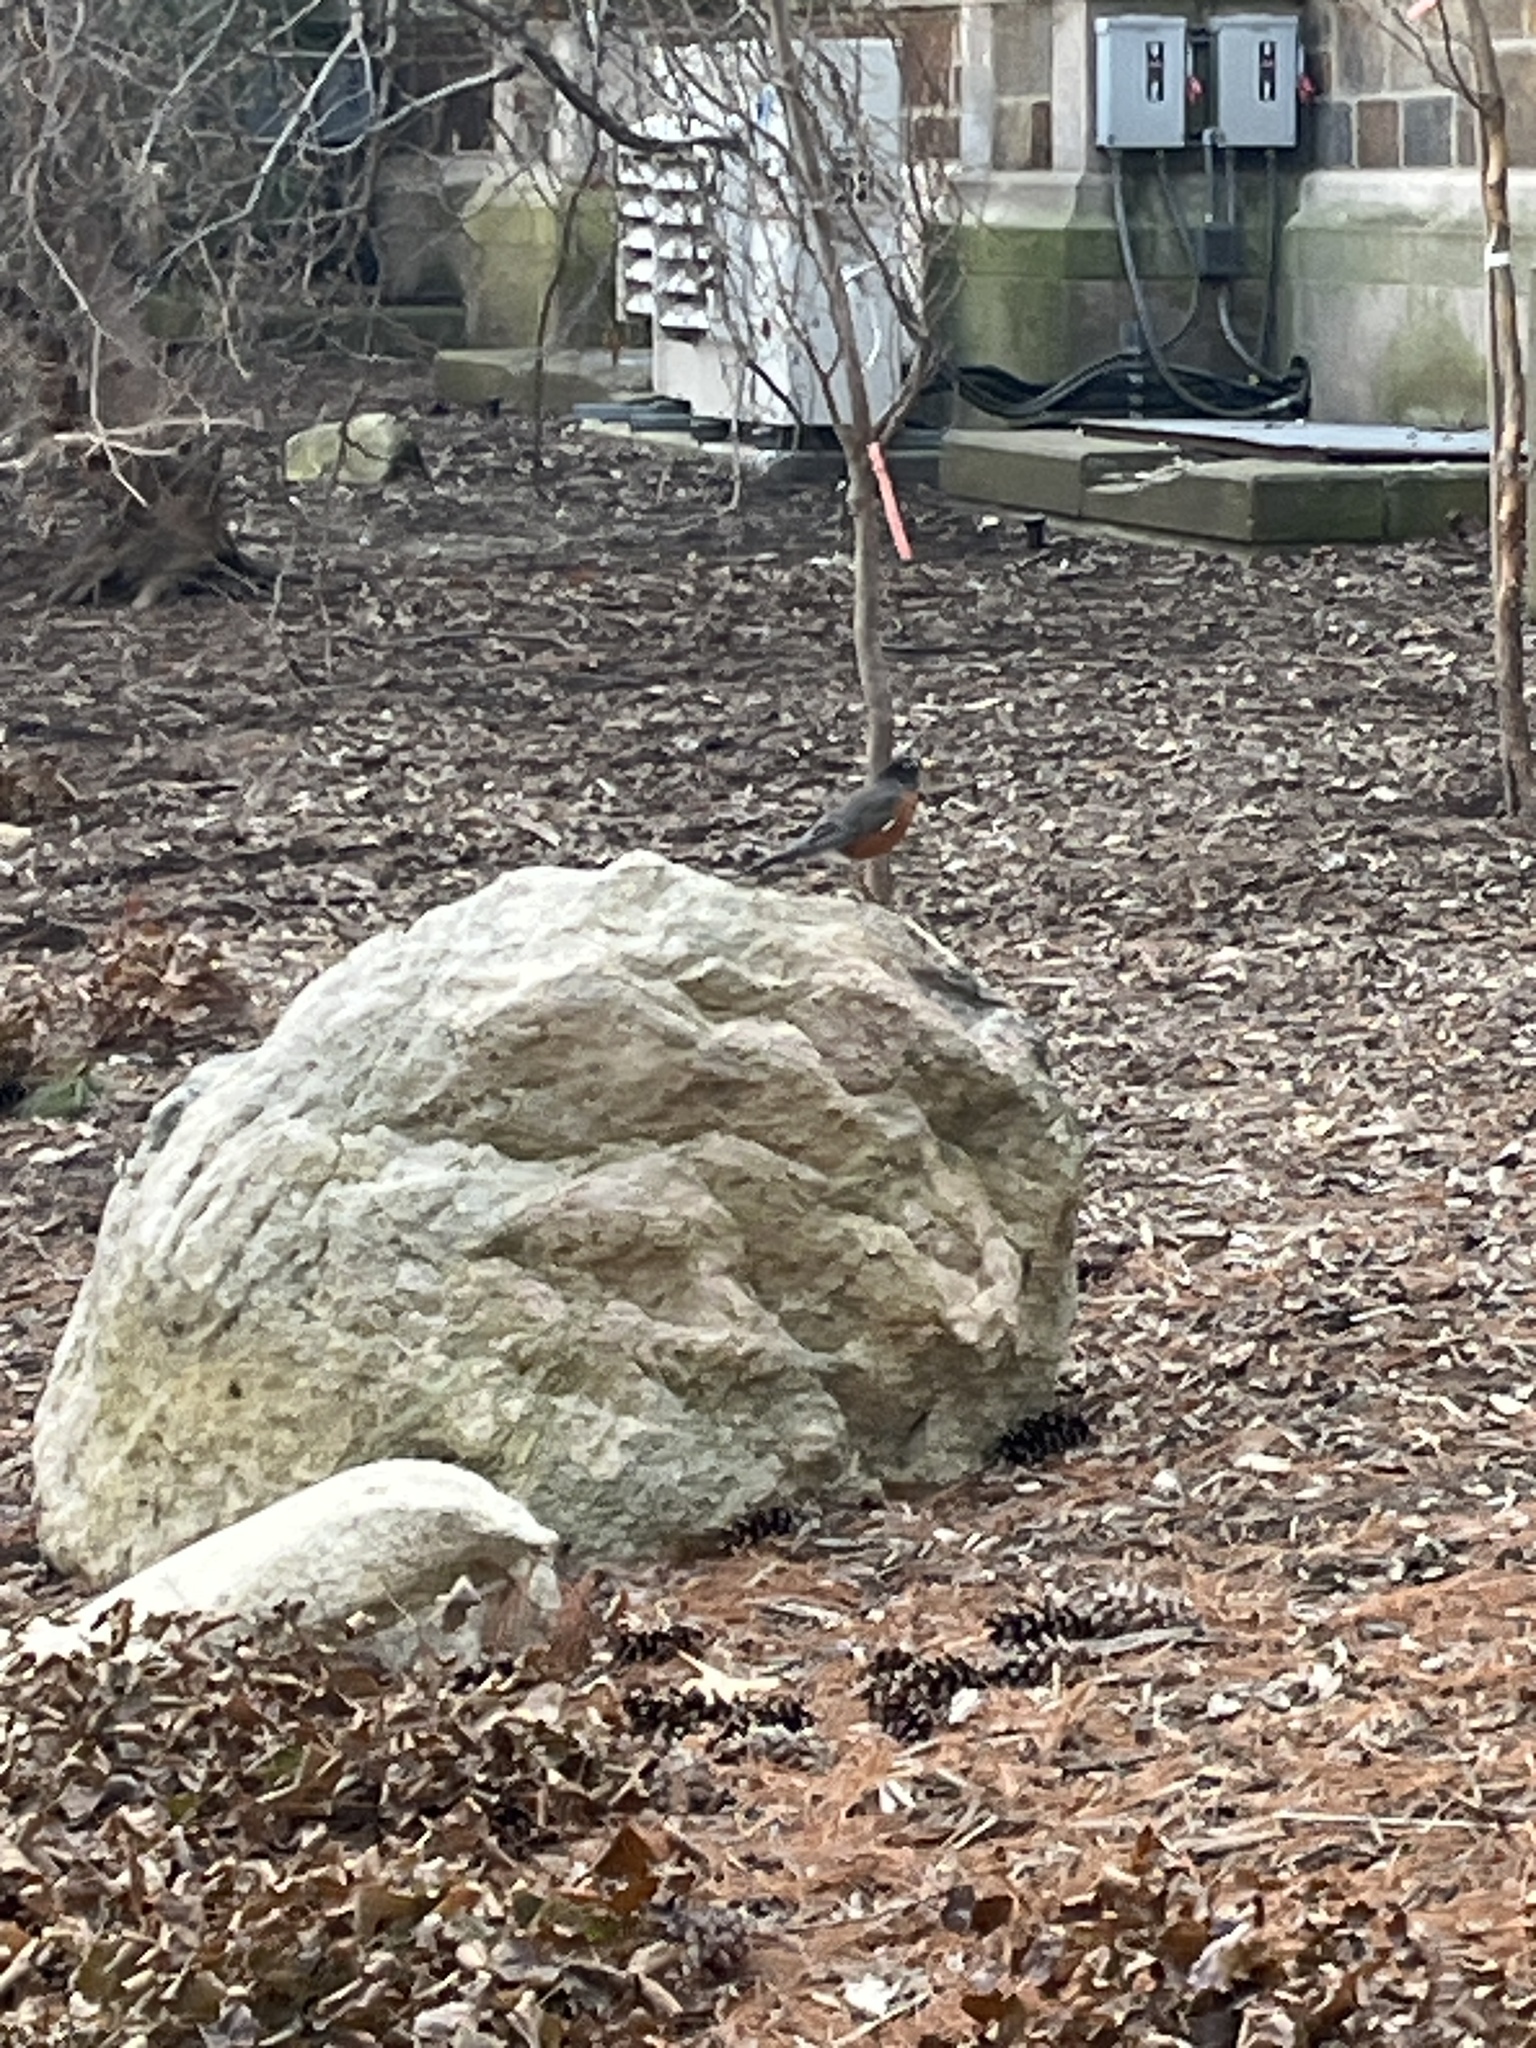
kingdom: Animalia
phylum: Chordata
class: Aves
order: Passeriformes
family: Turdidae
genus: Turdus
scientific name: Turdus migratorius
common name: American robin
